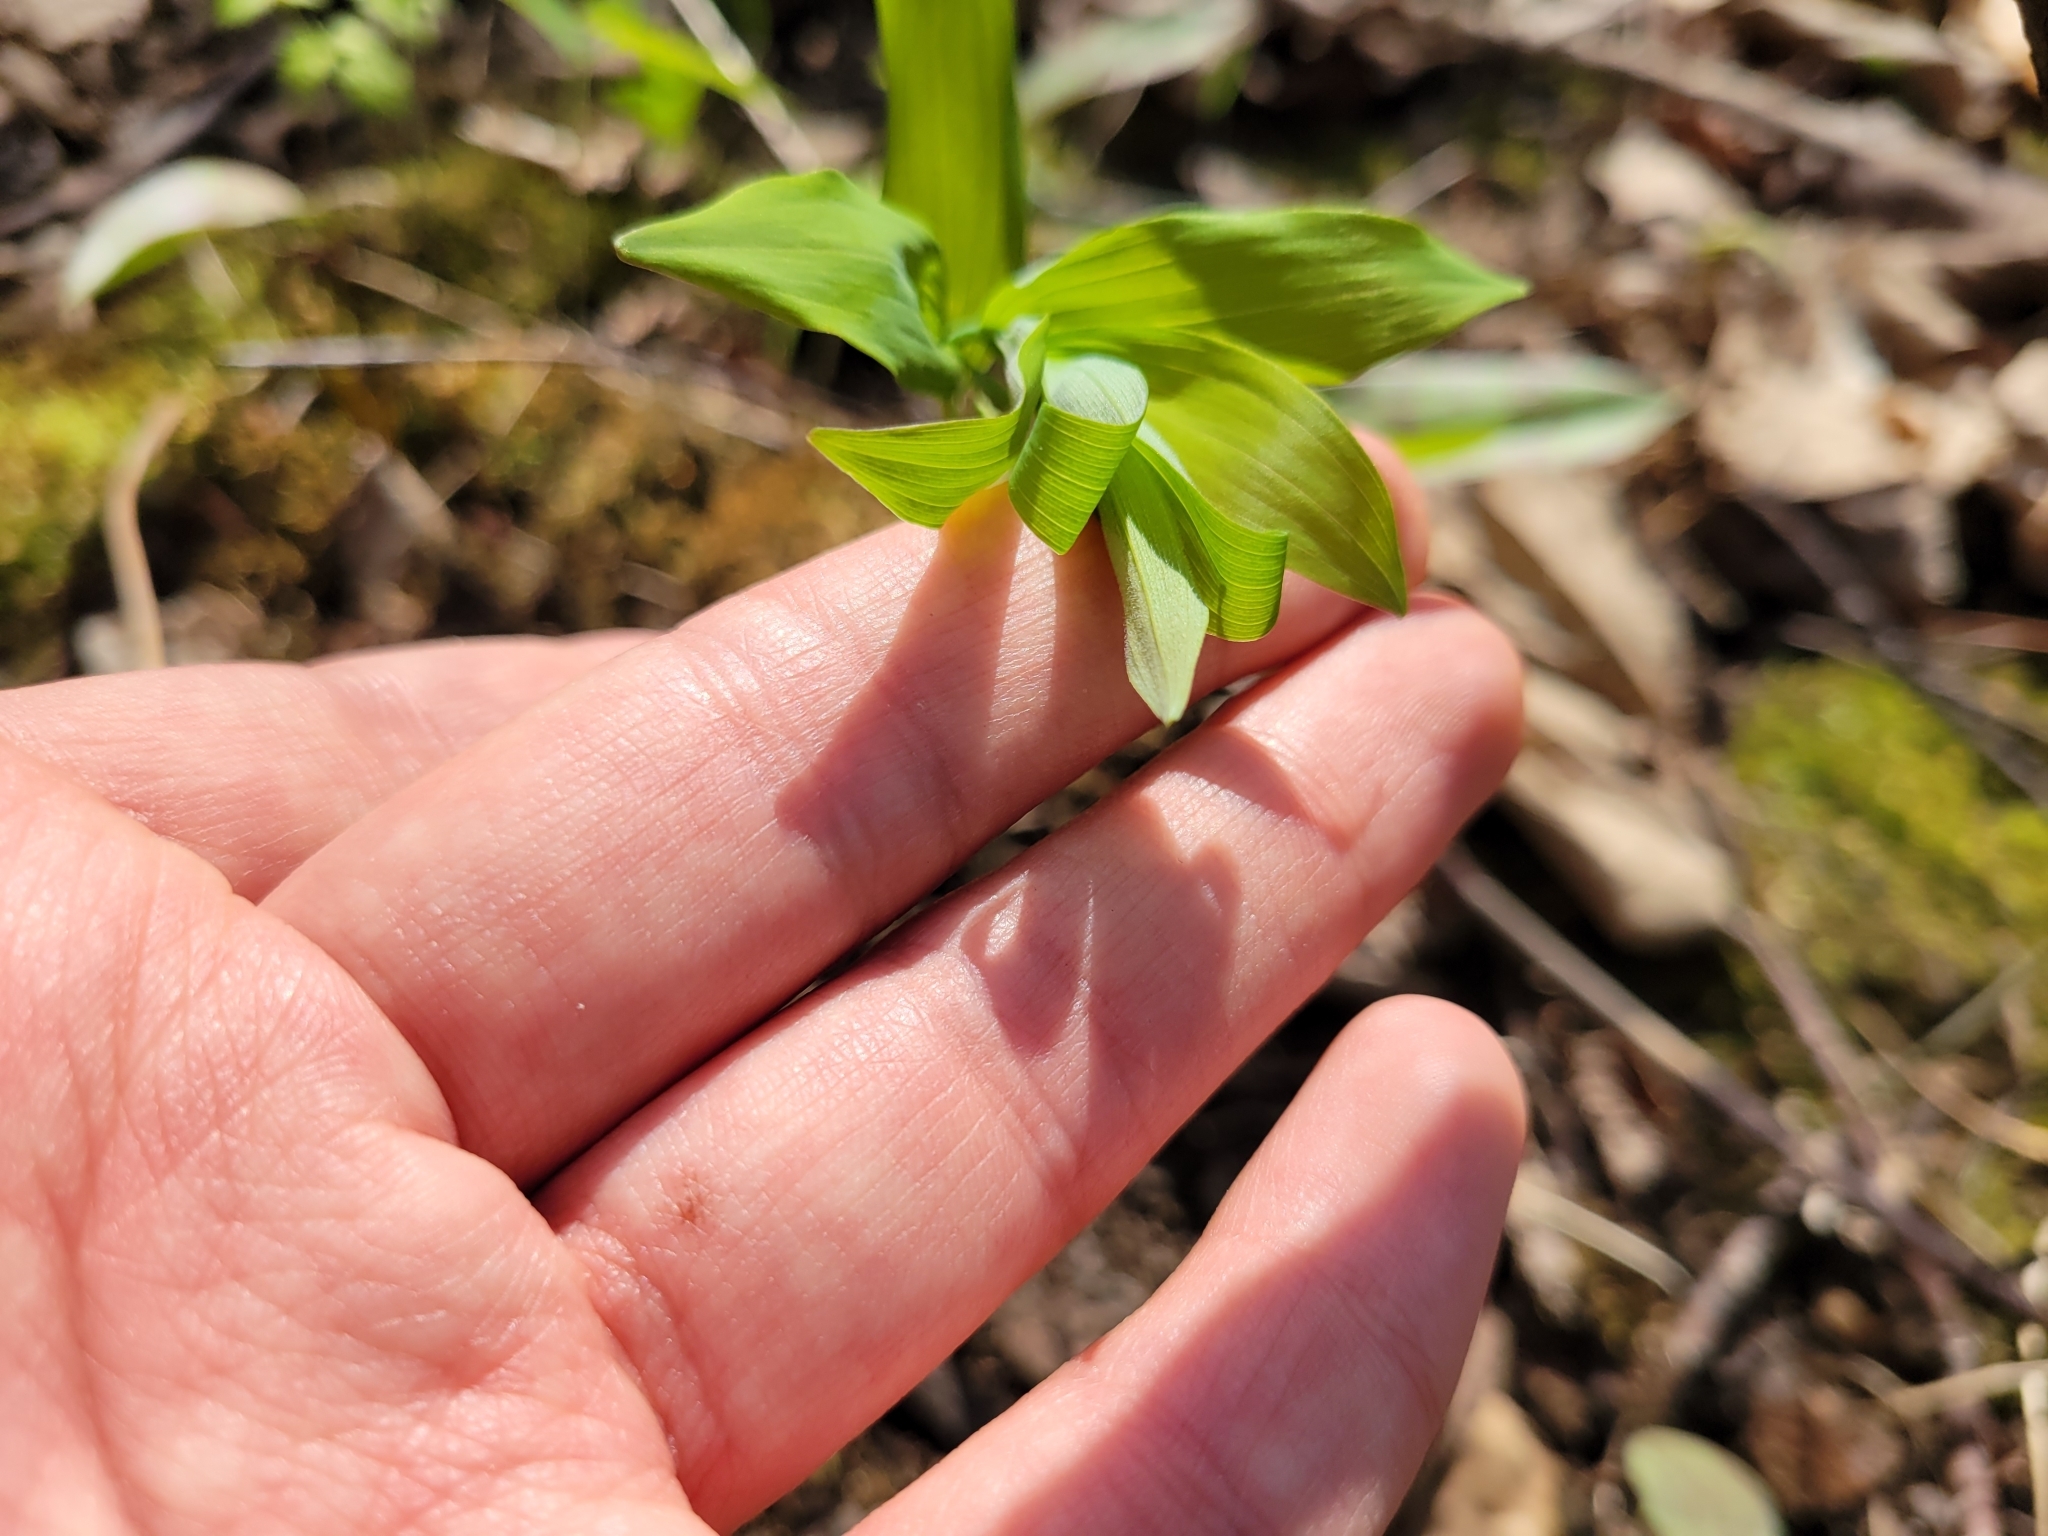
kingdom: Plantae
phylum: Tracheophyta
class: Liliopsida
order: Asparagales
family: Asparagaceae
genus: Polygonatum
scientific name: Polygonatum pubescens
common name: Downy solomon's seal
